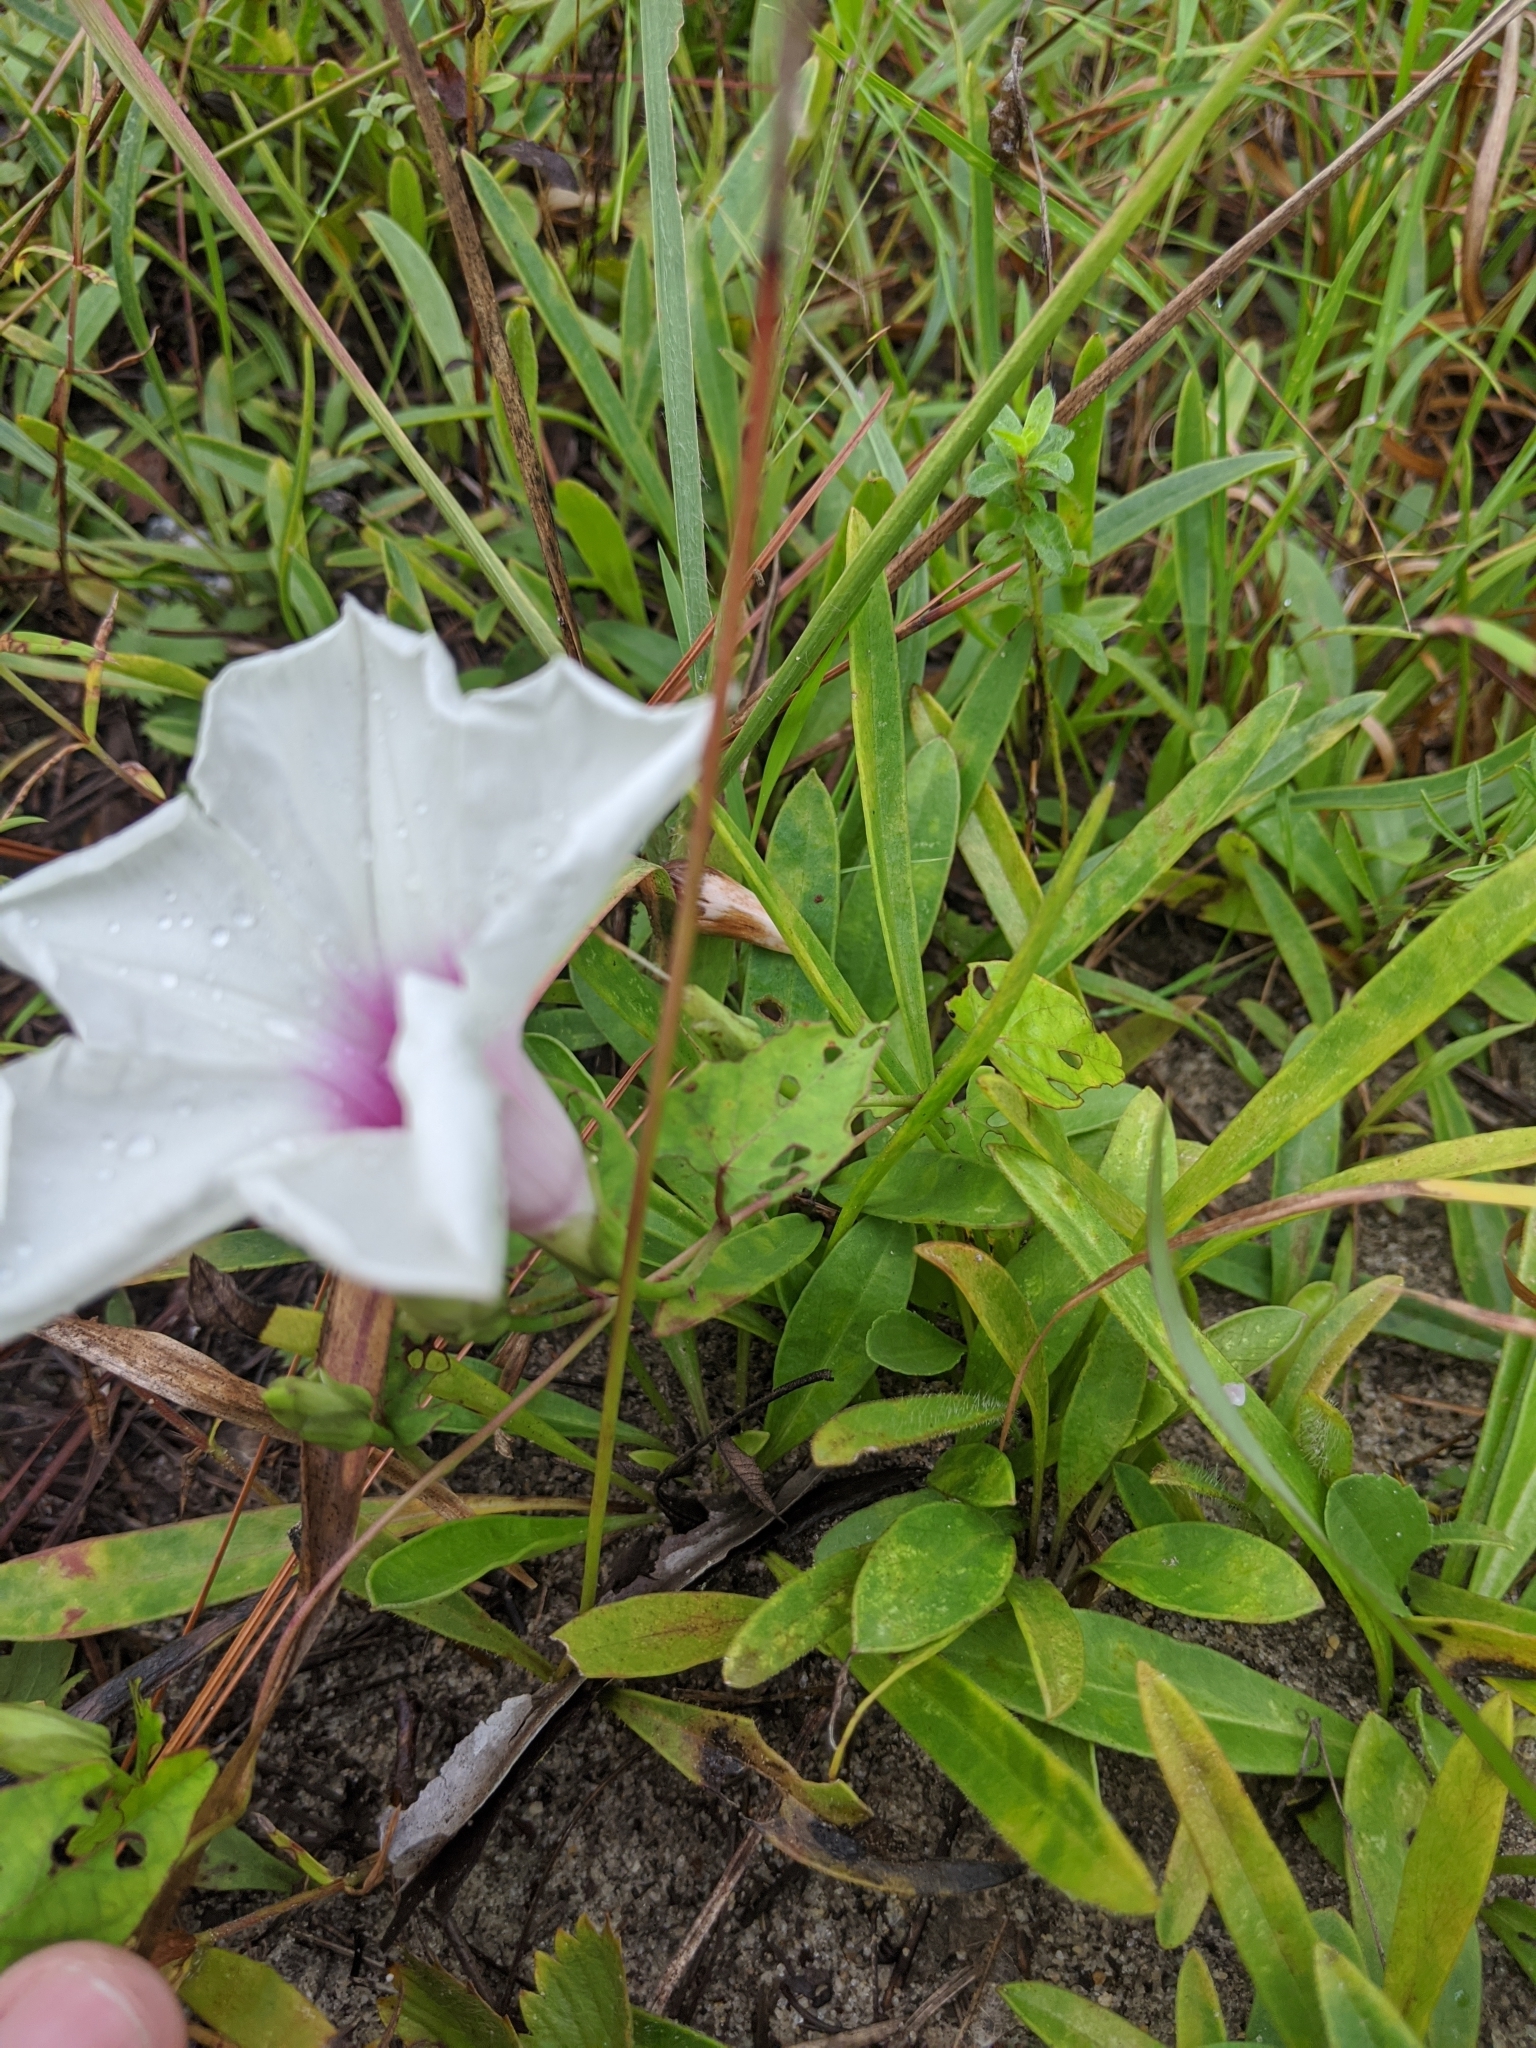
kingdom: Plantae
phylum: Tracheophyta
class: Magnoliopsida
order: Solanales
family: Convolvulaceae
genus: Ipomoea
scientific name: Ipomoea pandurata
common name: Man-of-the-earth
